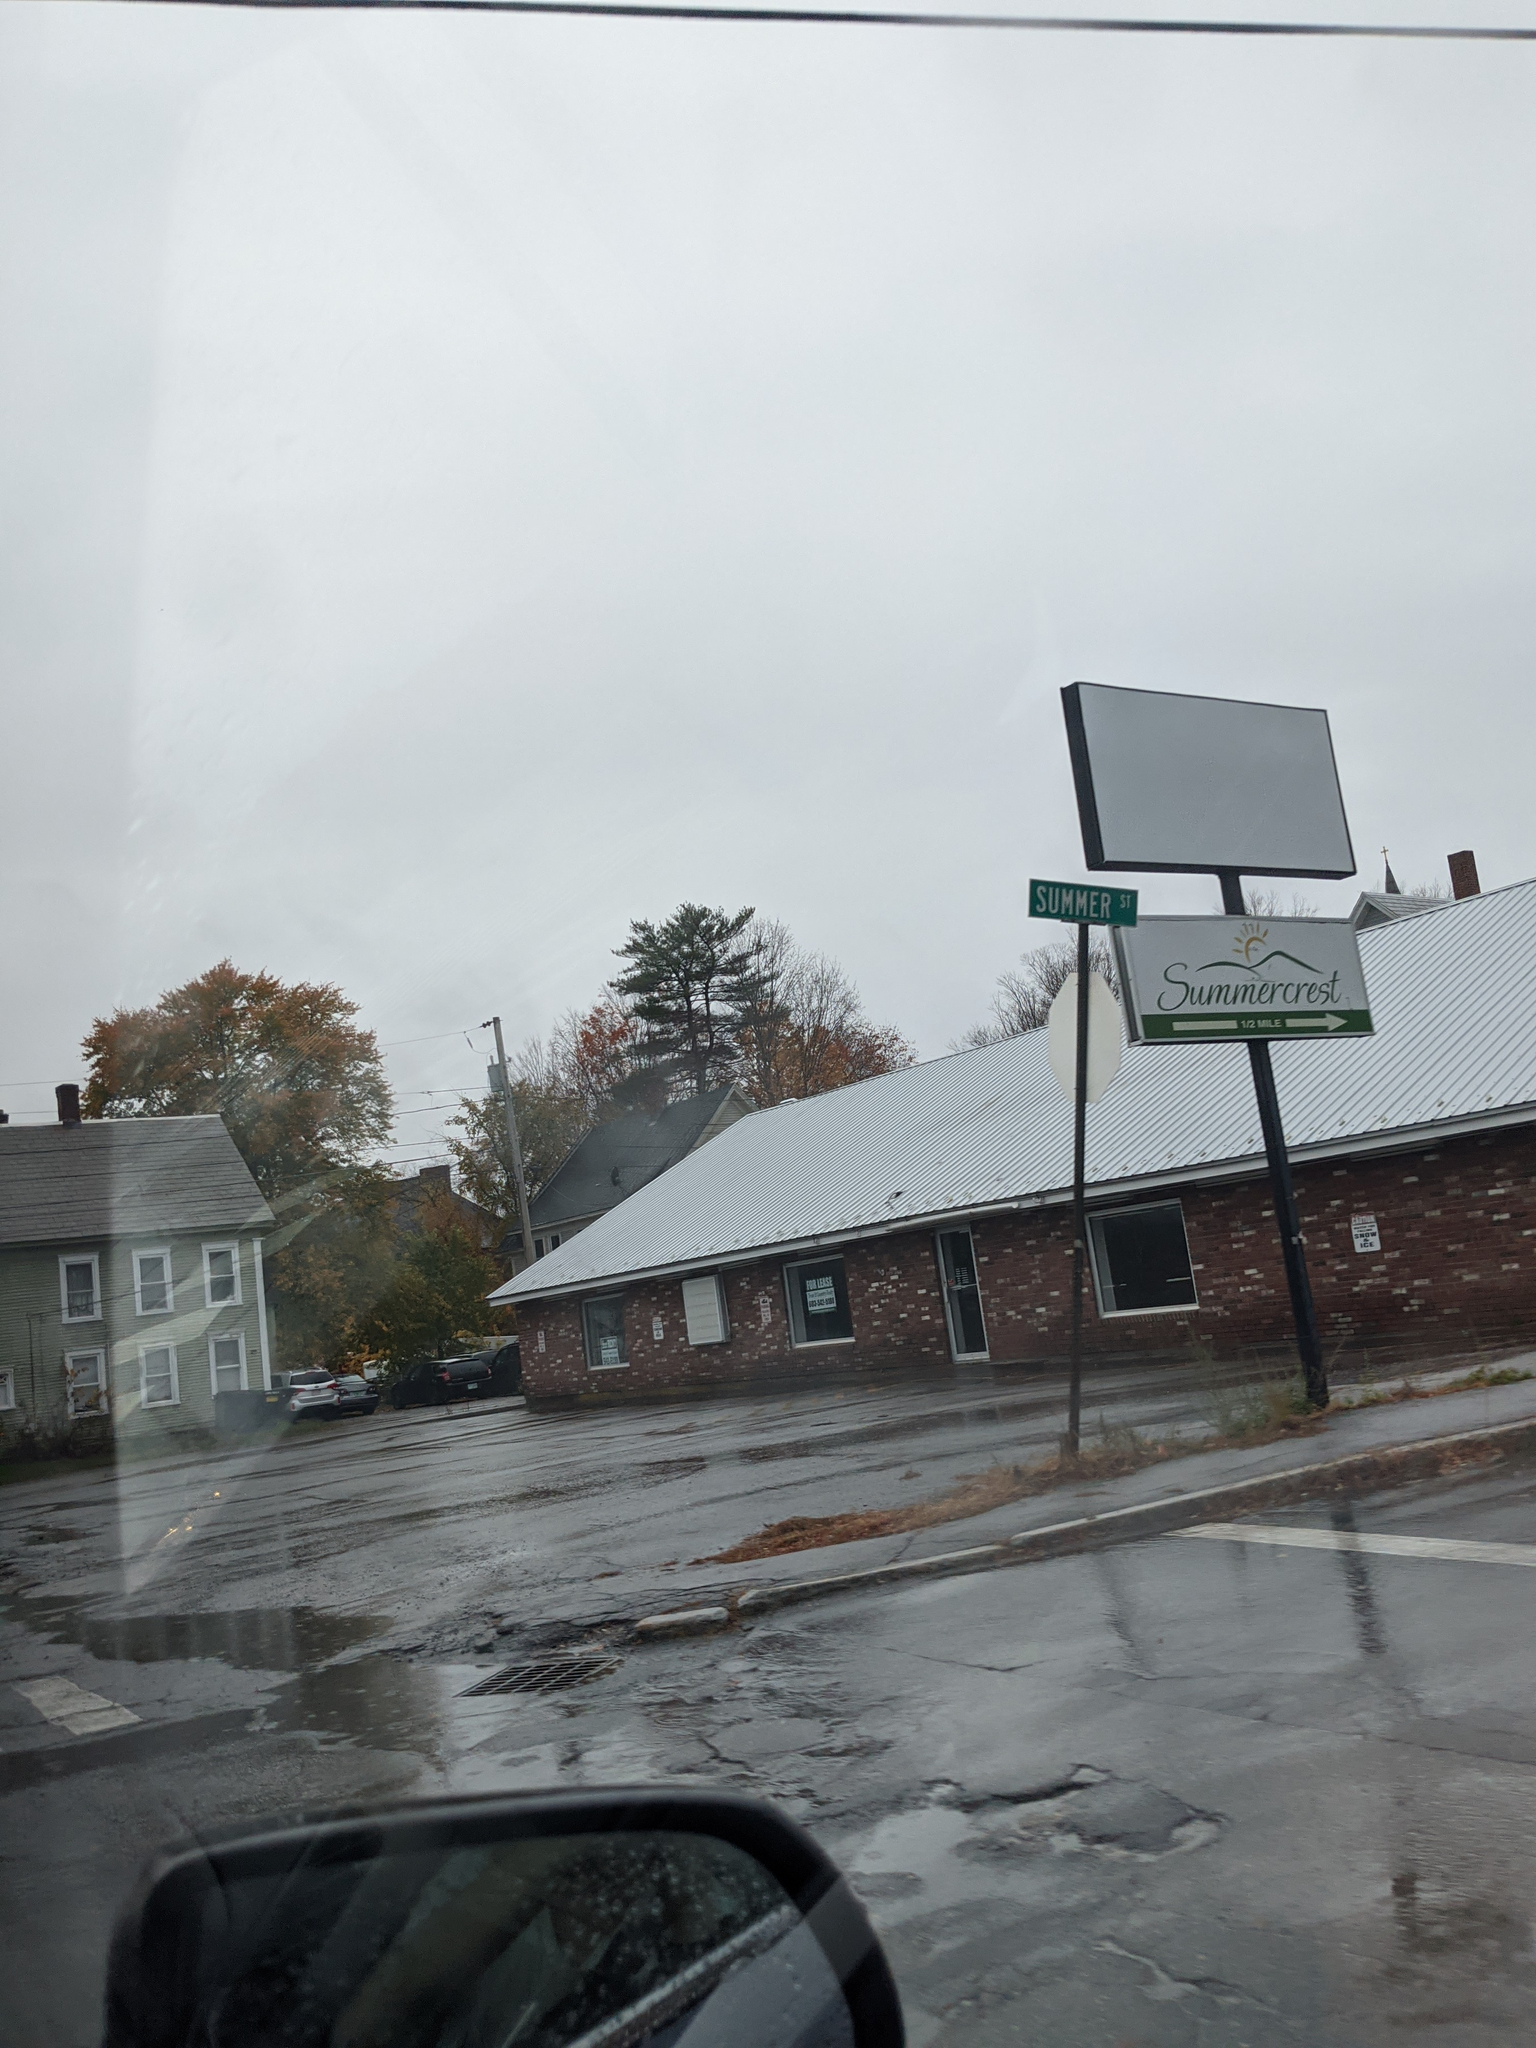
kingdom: Plantae
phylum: Tracheophyta
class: Pinopsida
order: Pinales
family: Pinaceae
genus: Pinus
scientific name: Pinus strobus
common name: Weymouth pine
